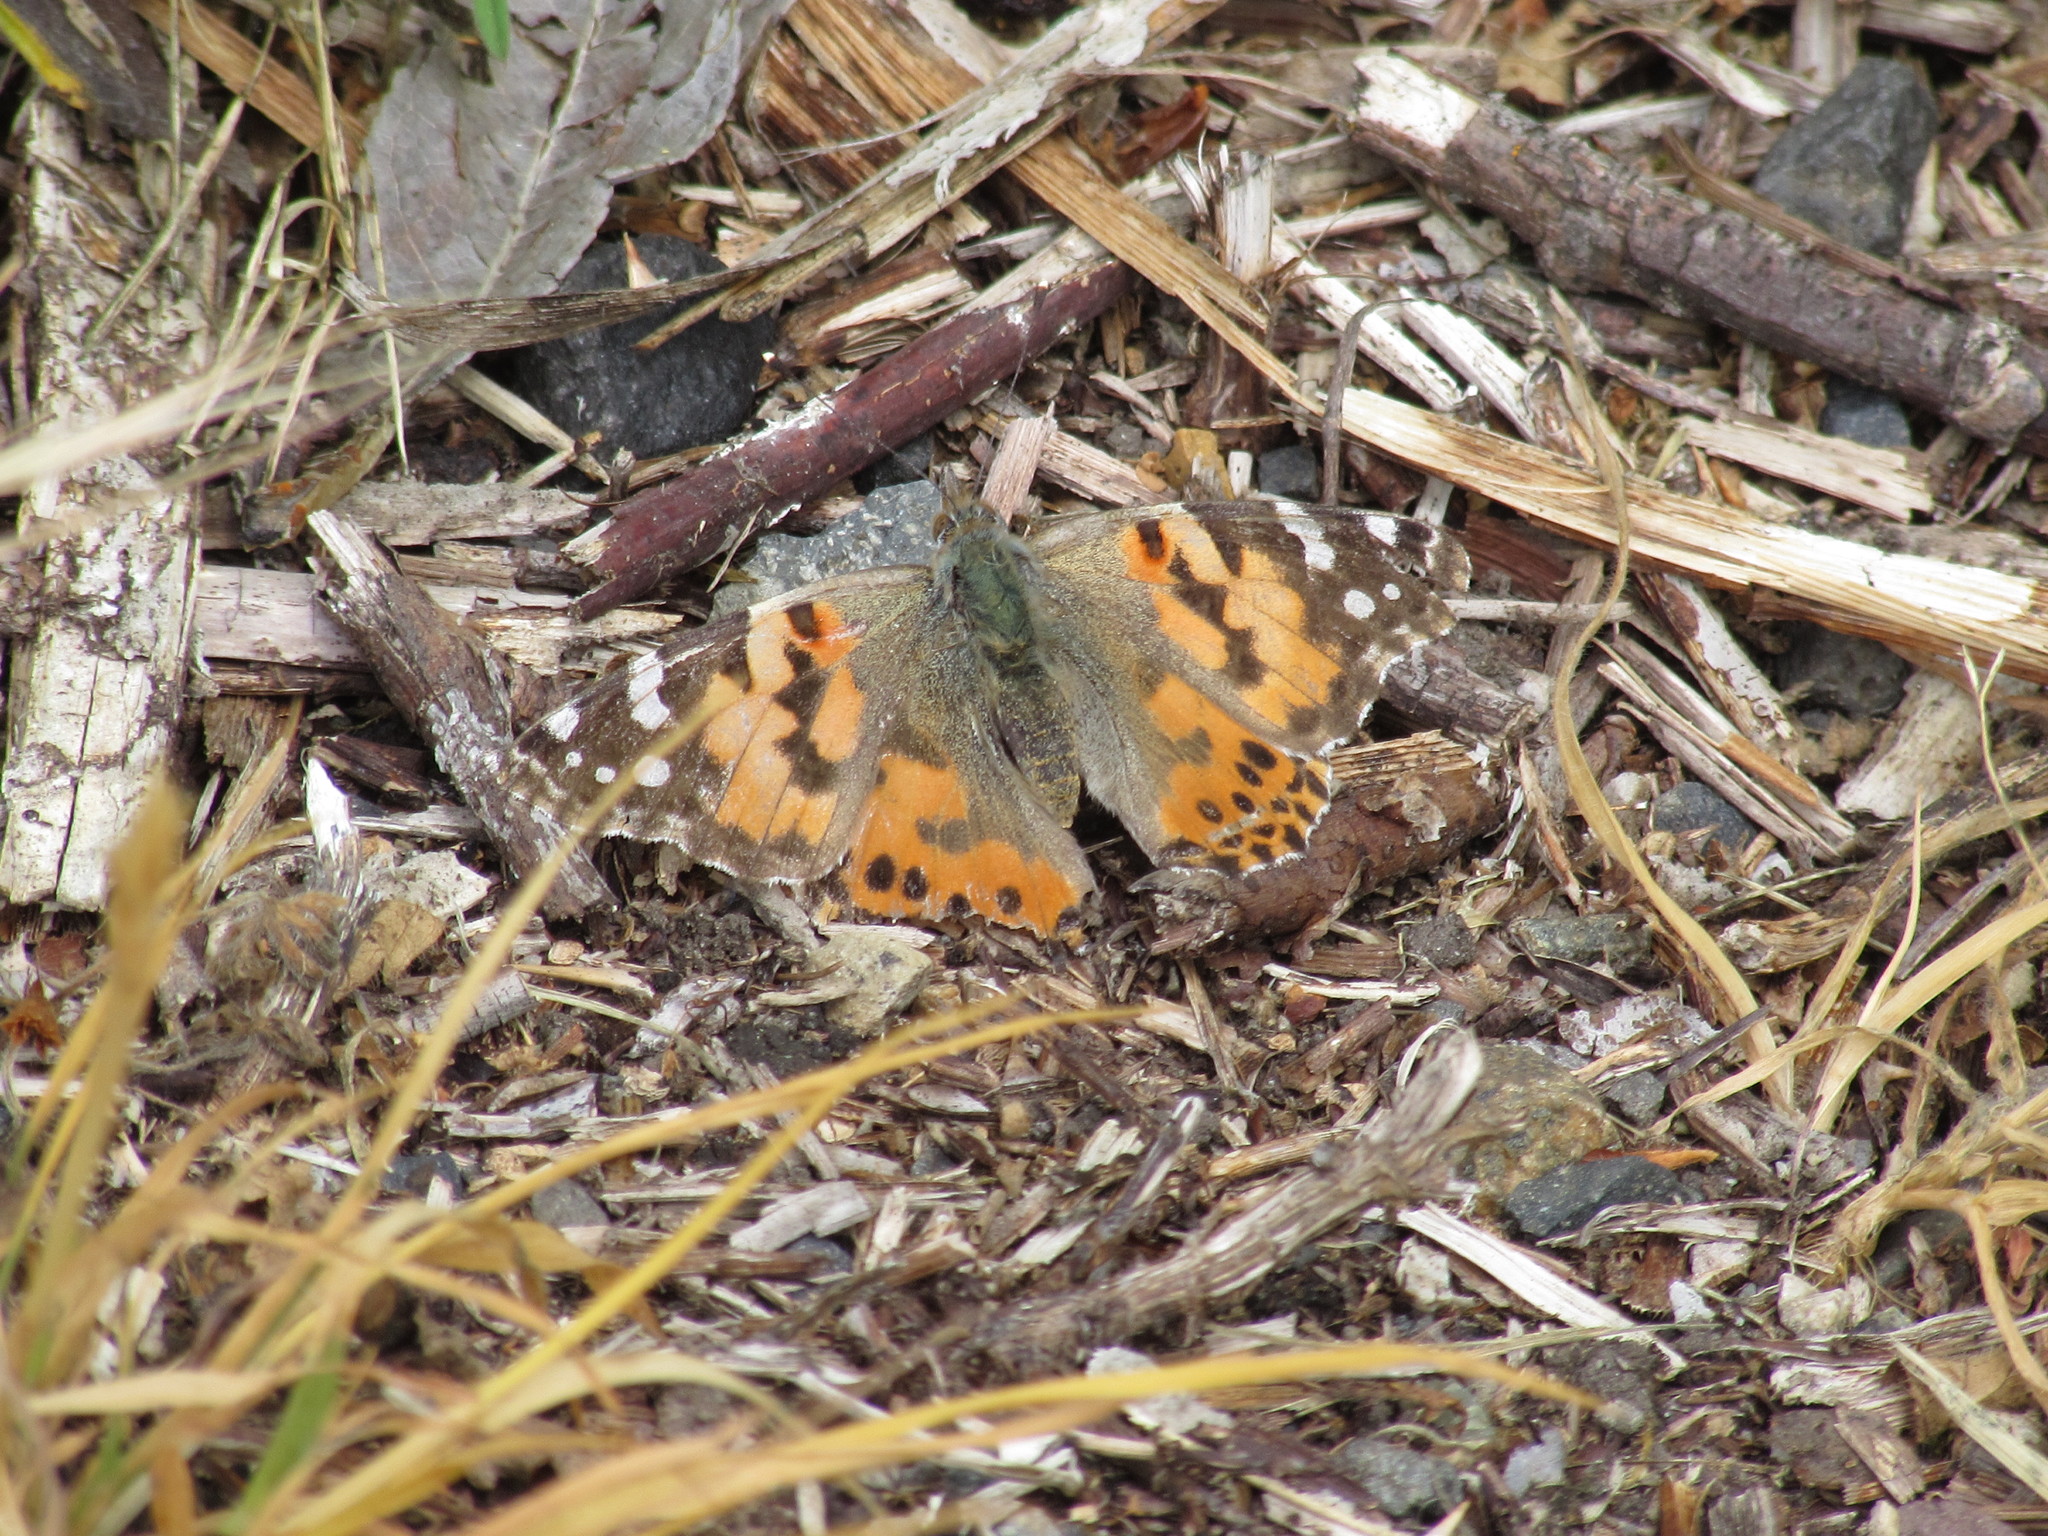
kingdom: Animalia
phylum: Arthropoda
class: Insecta
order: Lepidoptera
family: Nymphalidae
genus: Vanessa
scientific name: Vanessa cardui
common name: Painted lady
